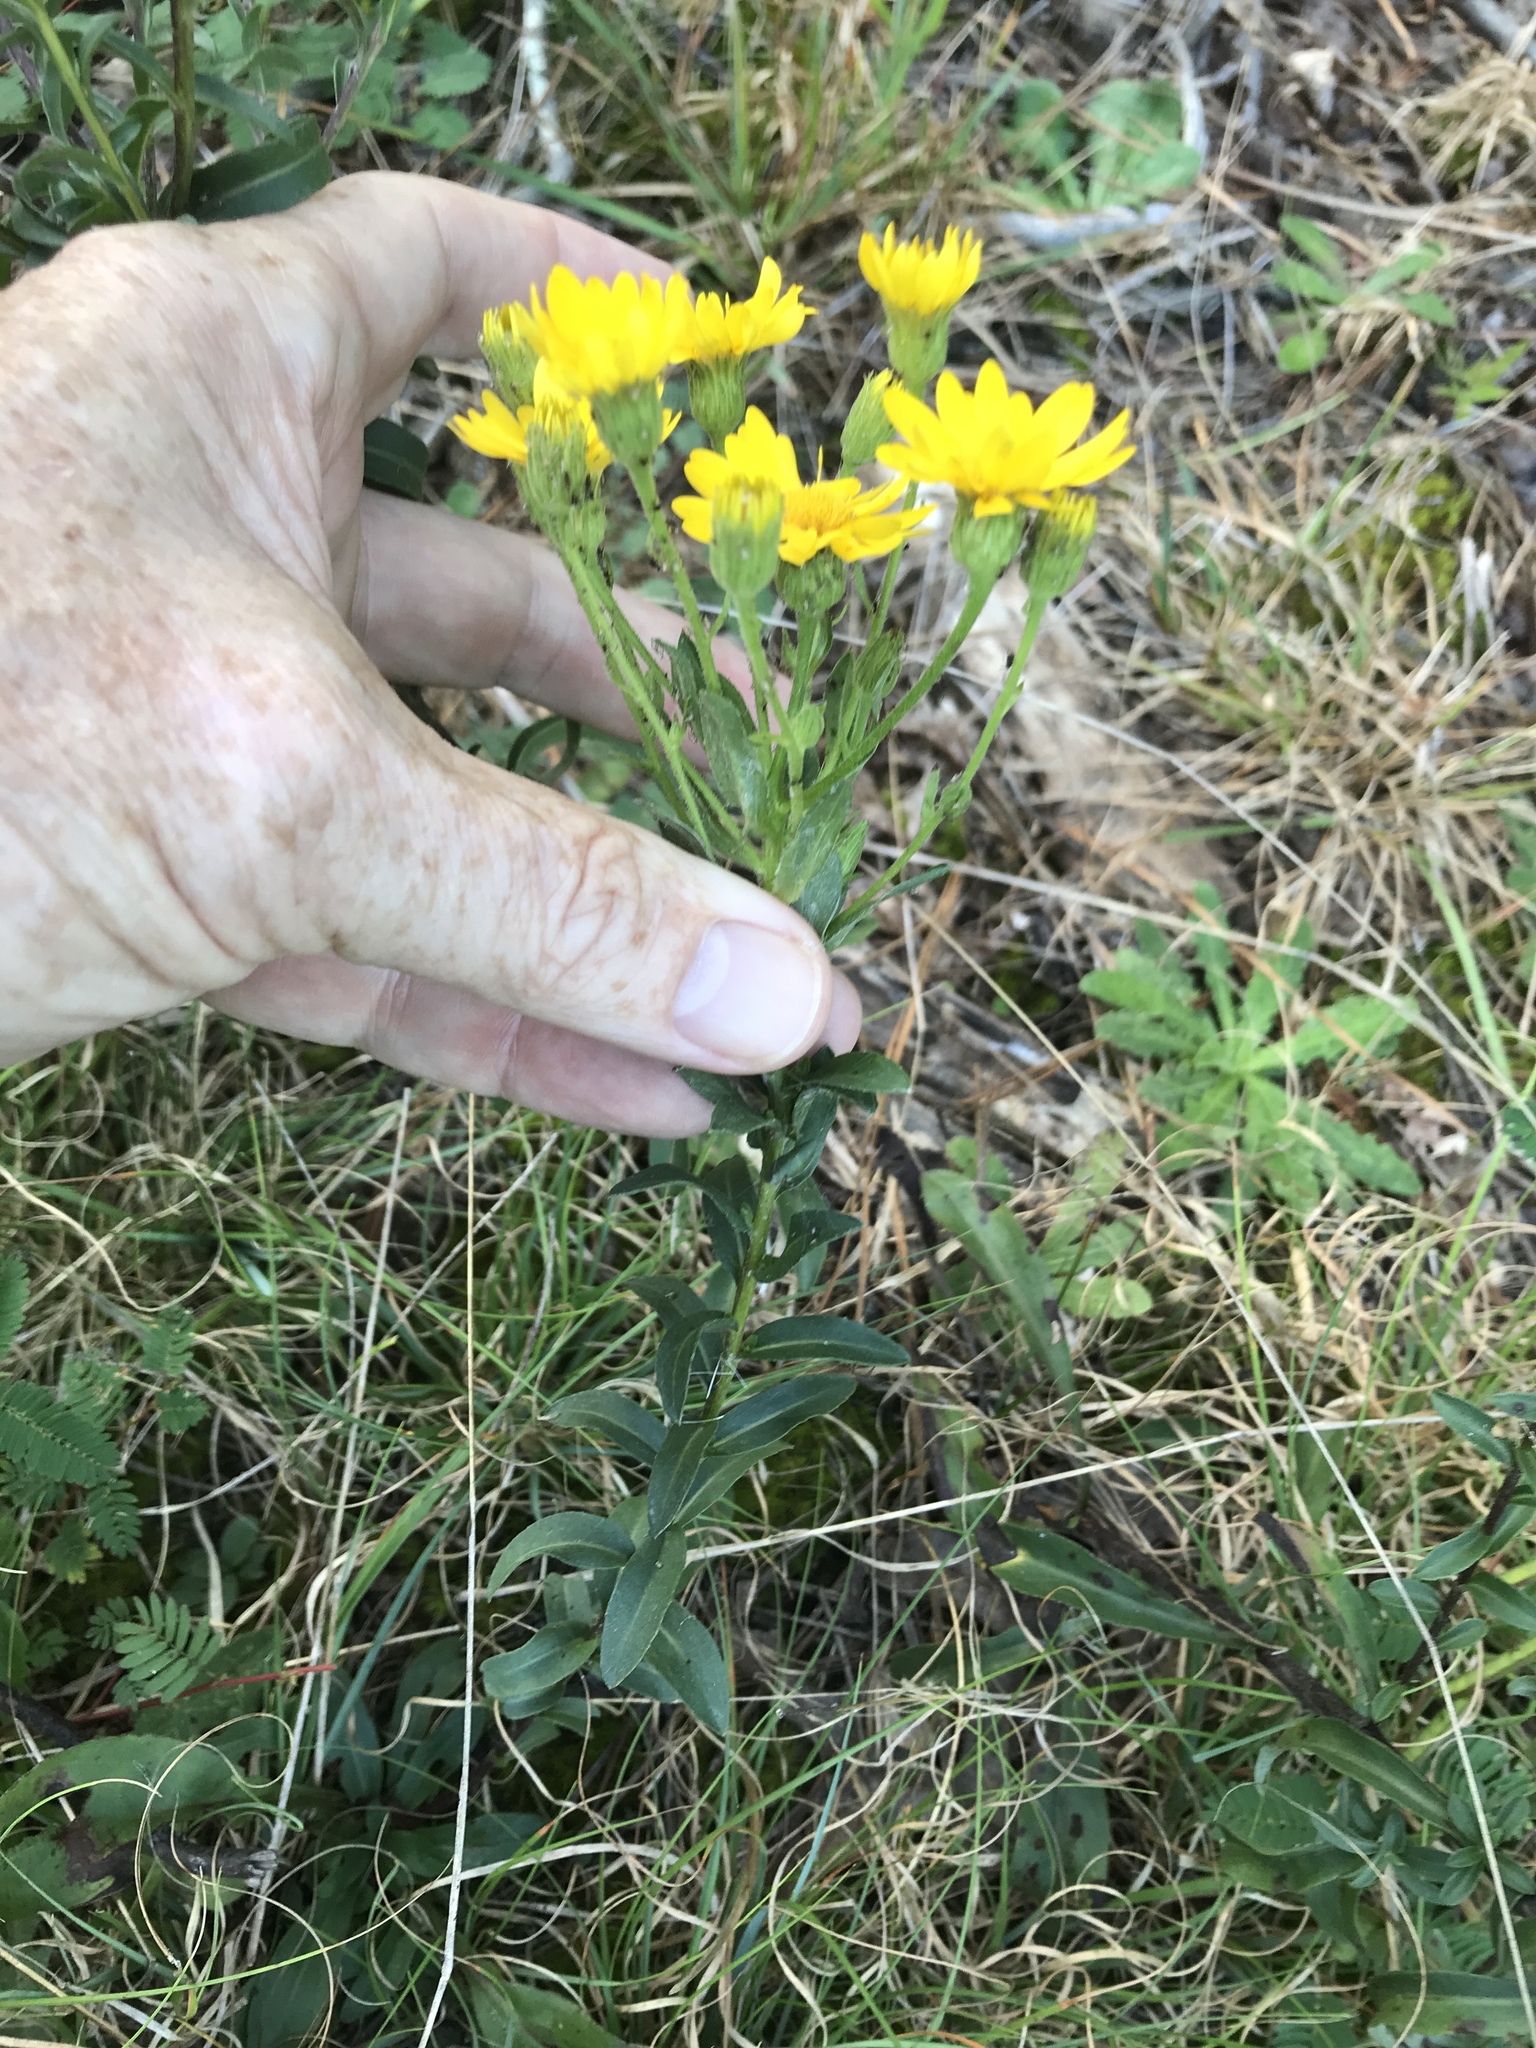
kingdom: Plantae
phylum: Tracheophyta
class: Magnoliopsida
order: Asterales
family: Asteraceae
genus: Chrysopsis
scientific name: Chrysopsis mariana
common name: Maryland golden-aster
